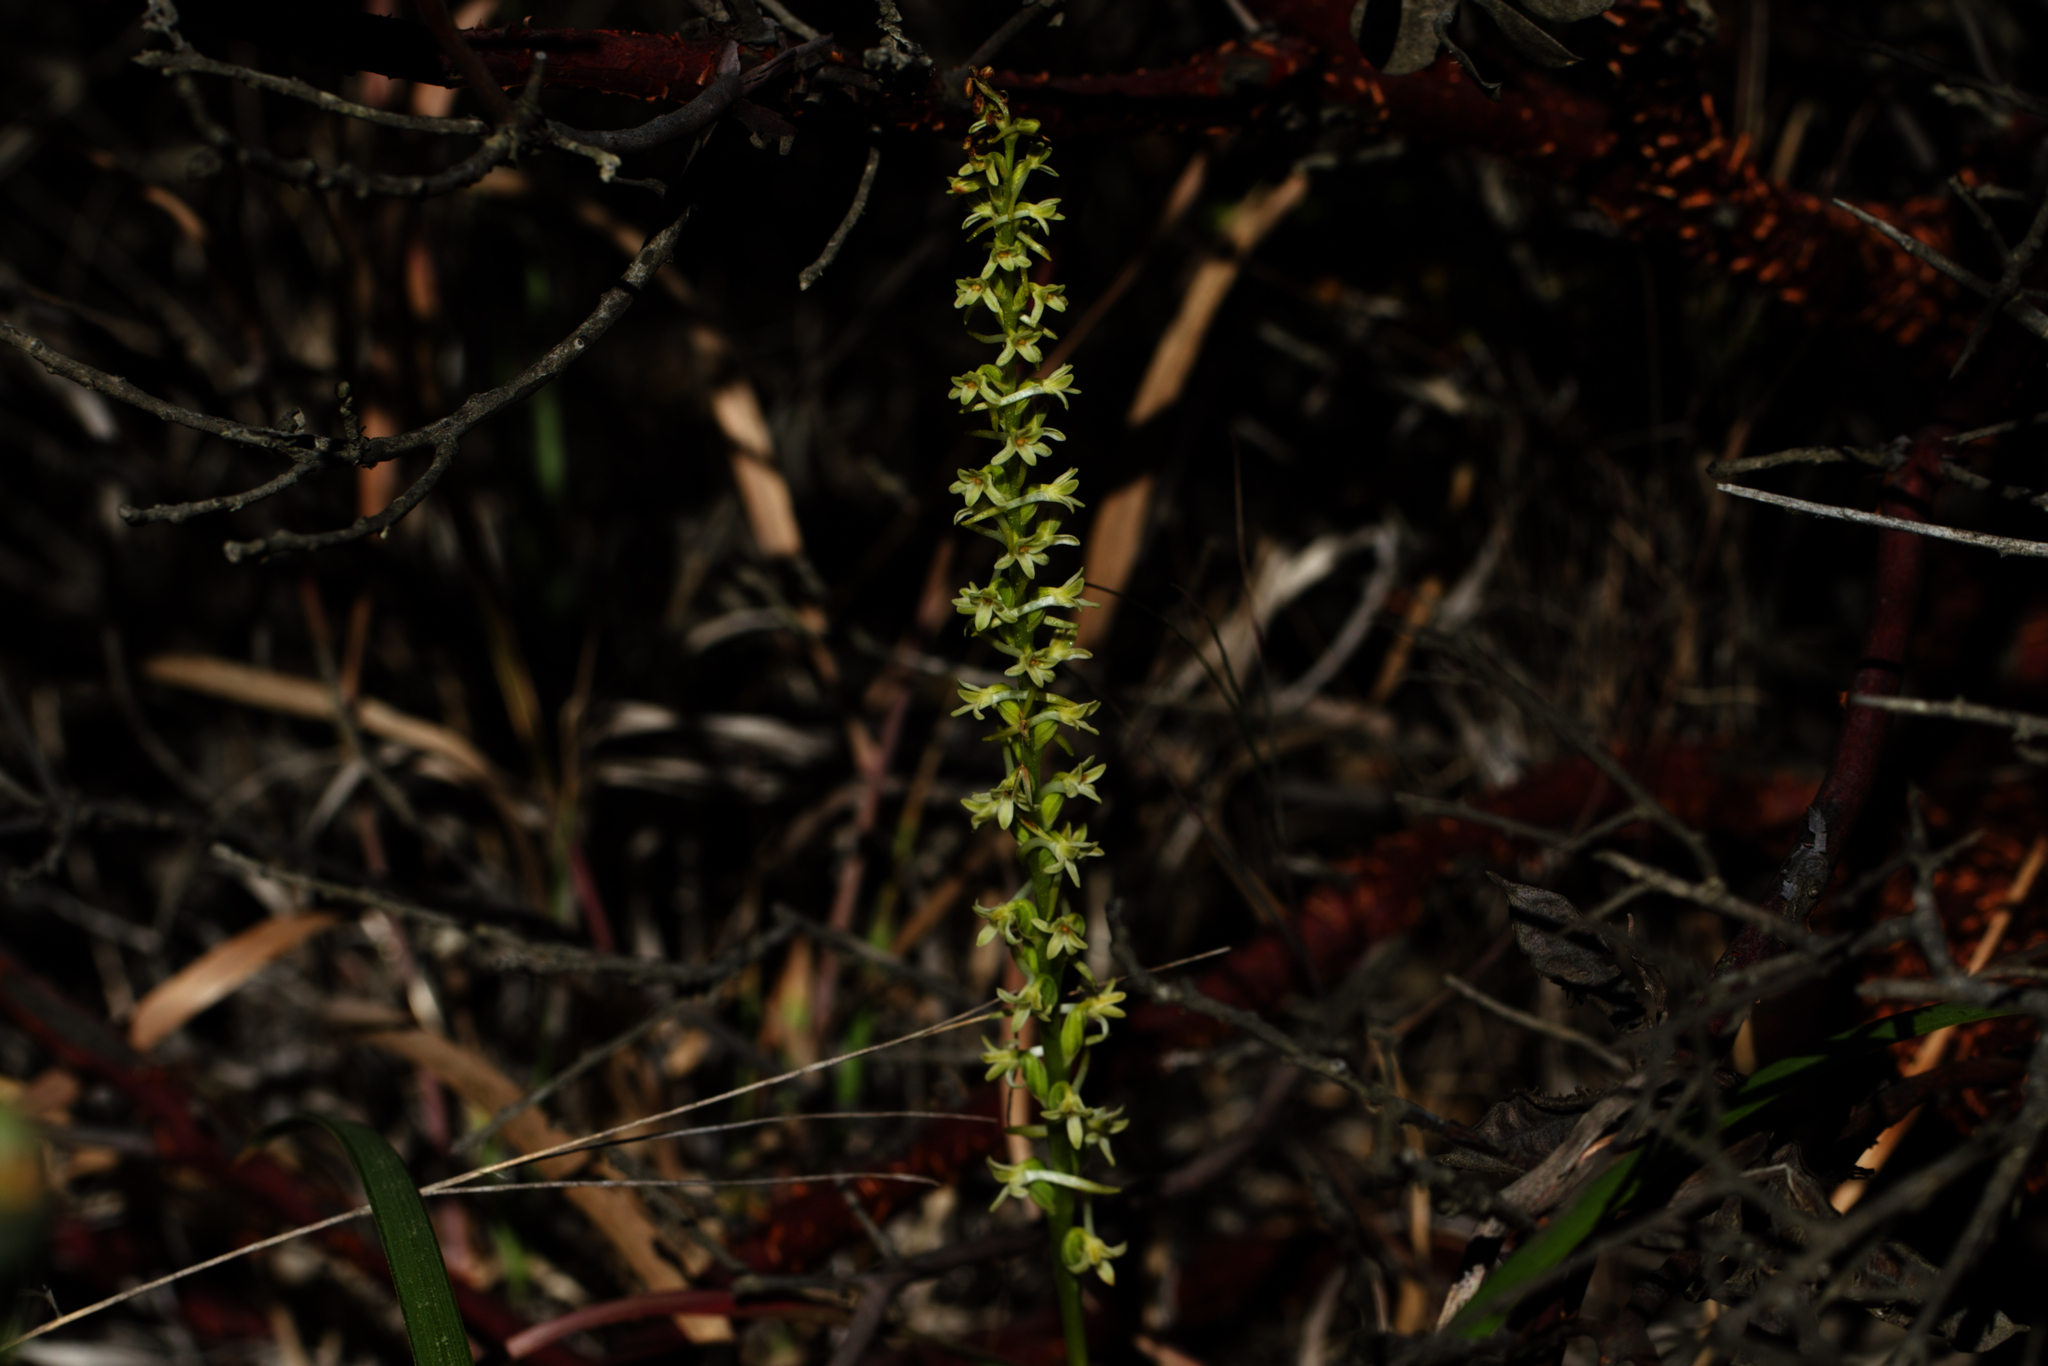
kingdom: Plantae
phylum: Tracheophyta
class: Liliopsida
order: Asparagales
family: Orchidaceae
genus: Platanthera
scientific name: Platanthera transversa
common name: Royal rein orchid
